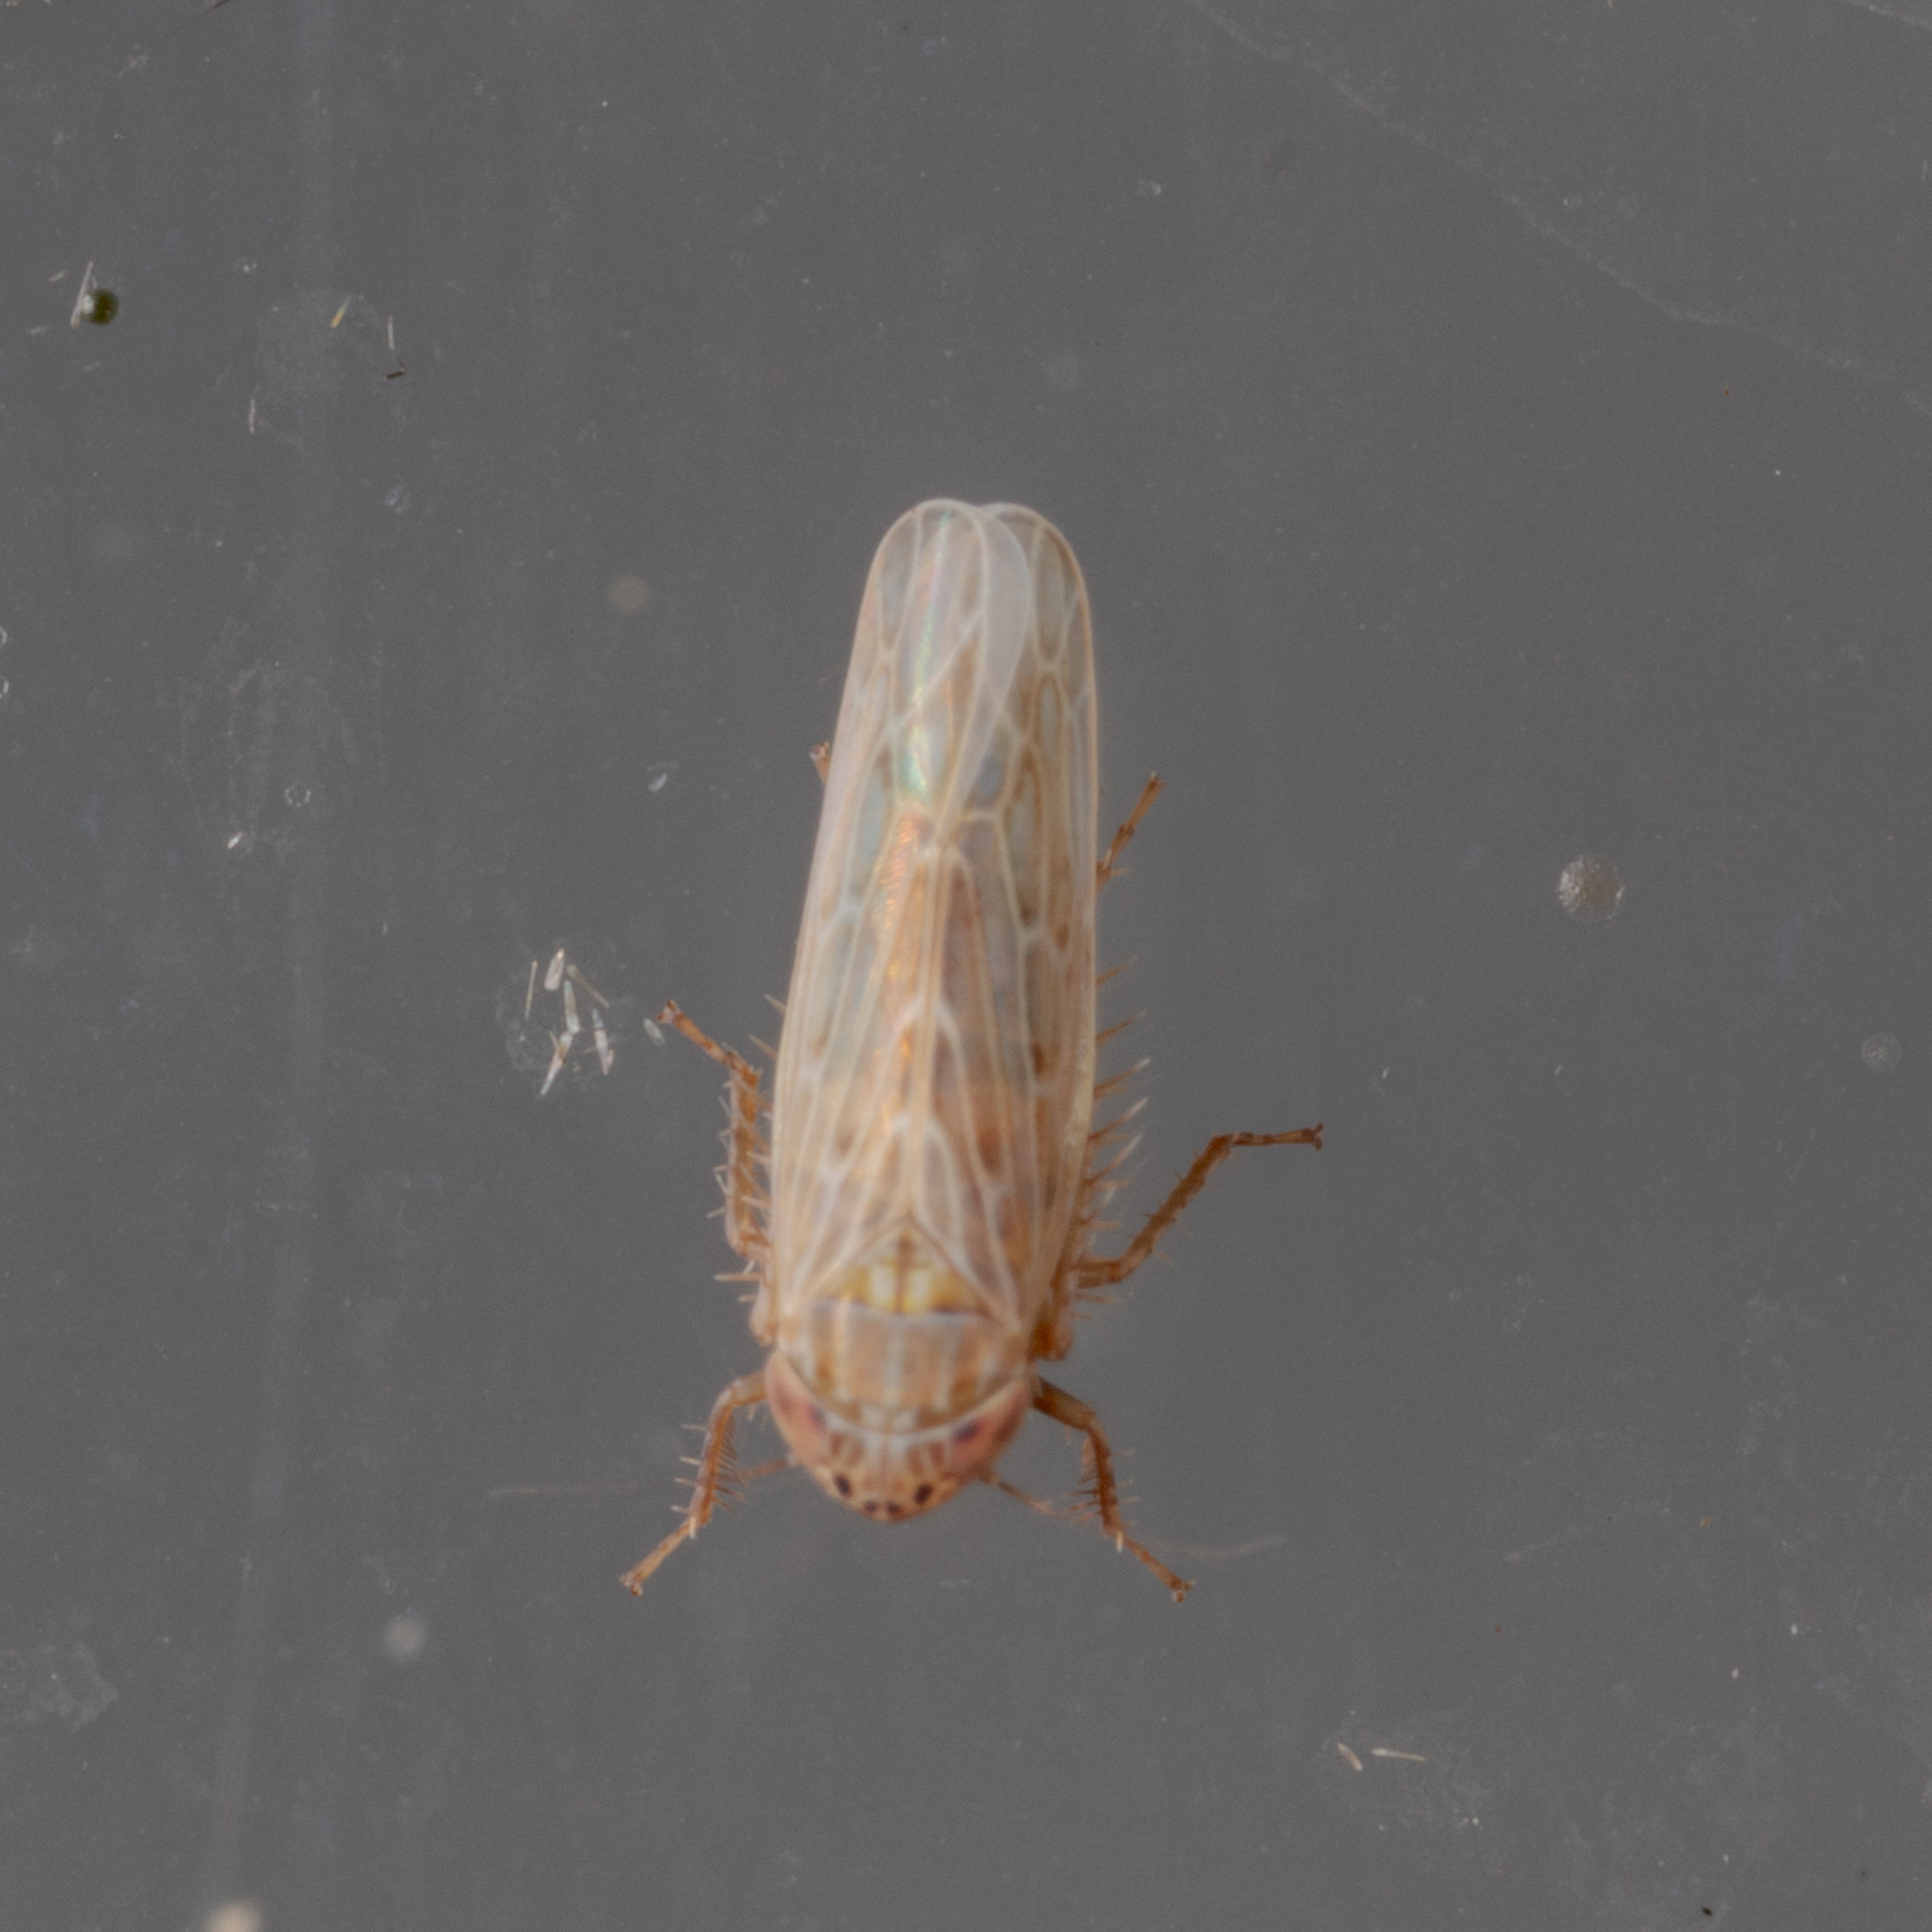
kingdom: Animalia
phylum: Arthropoda
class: Insecta
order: Hemiptera
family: Cicadellidae
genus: Graminella
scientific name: Graminella sonora
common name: Lesser lawn leafhopper
